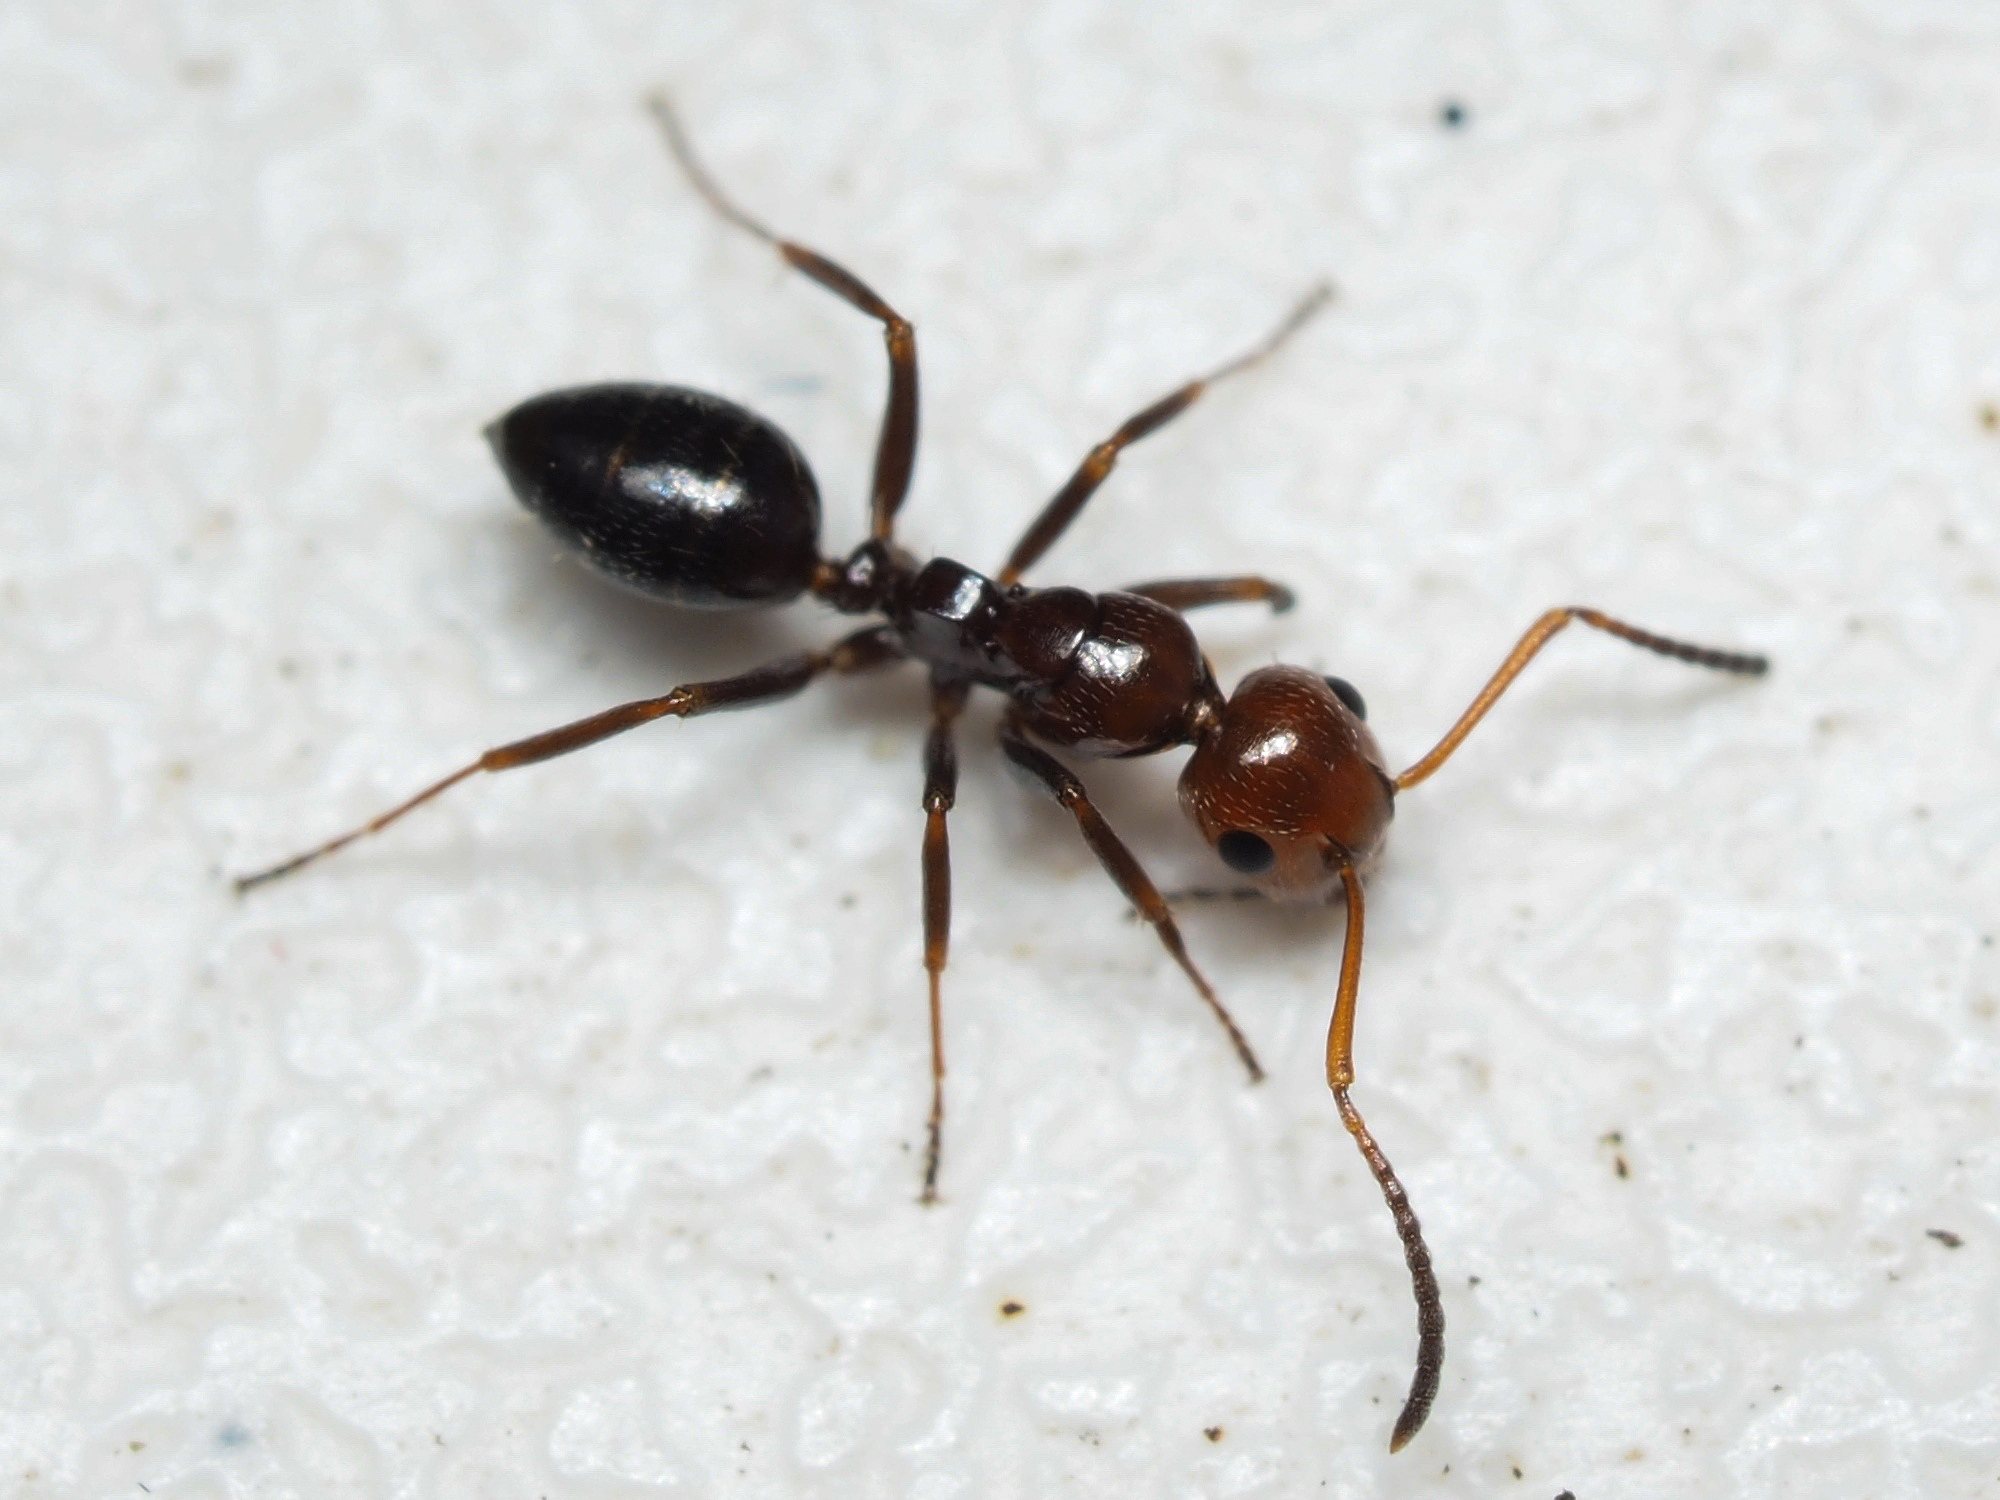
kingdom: Animalia
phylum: Arthropoda
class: Insecta
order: Hymenoptera
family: Formicidae
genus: Camponotus
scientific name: Camponotus lateralis
